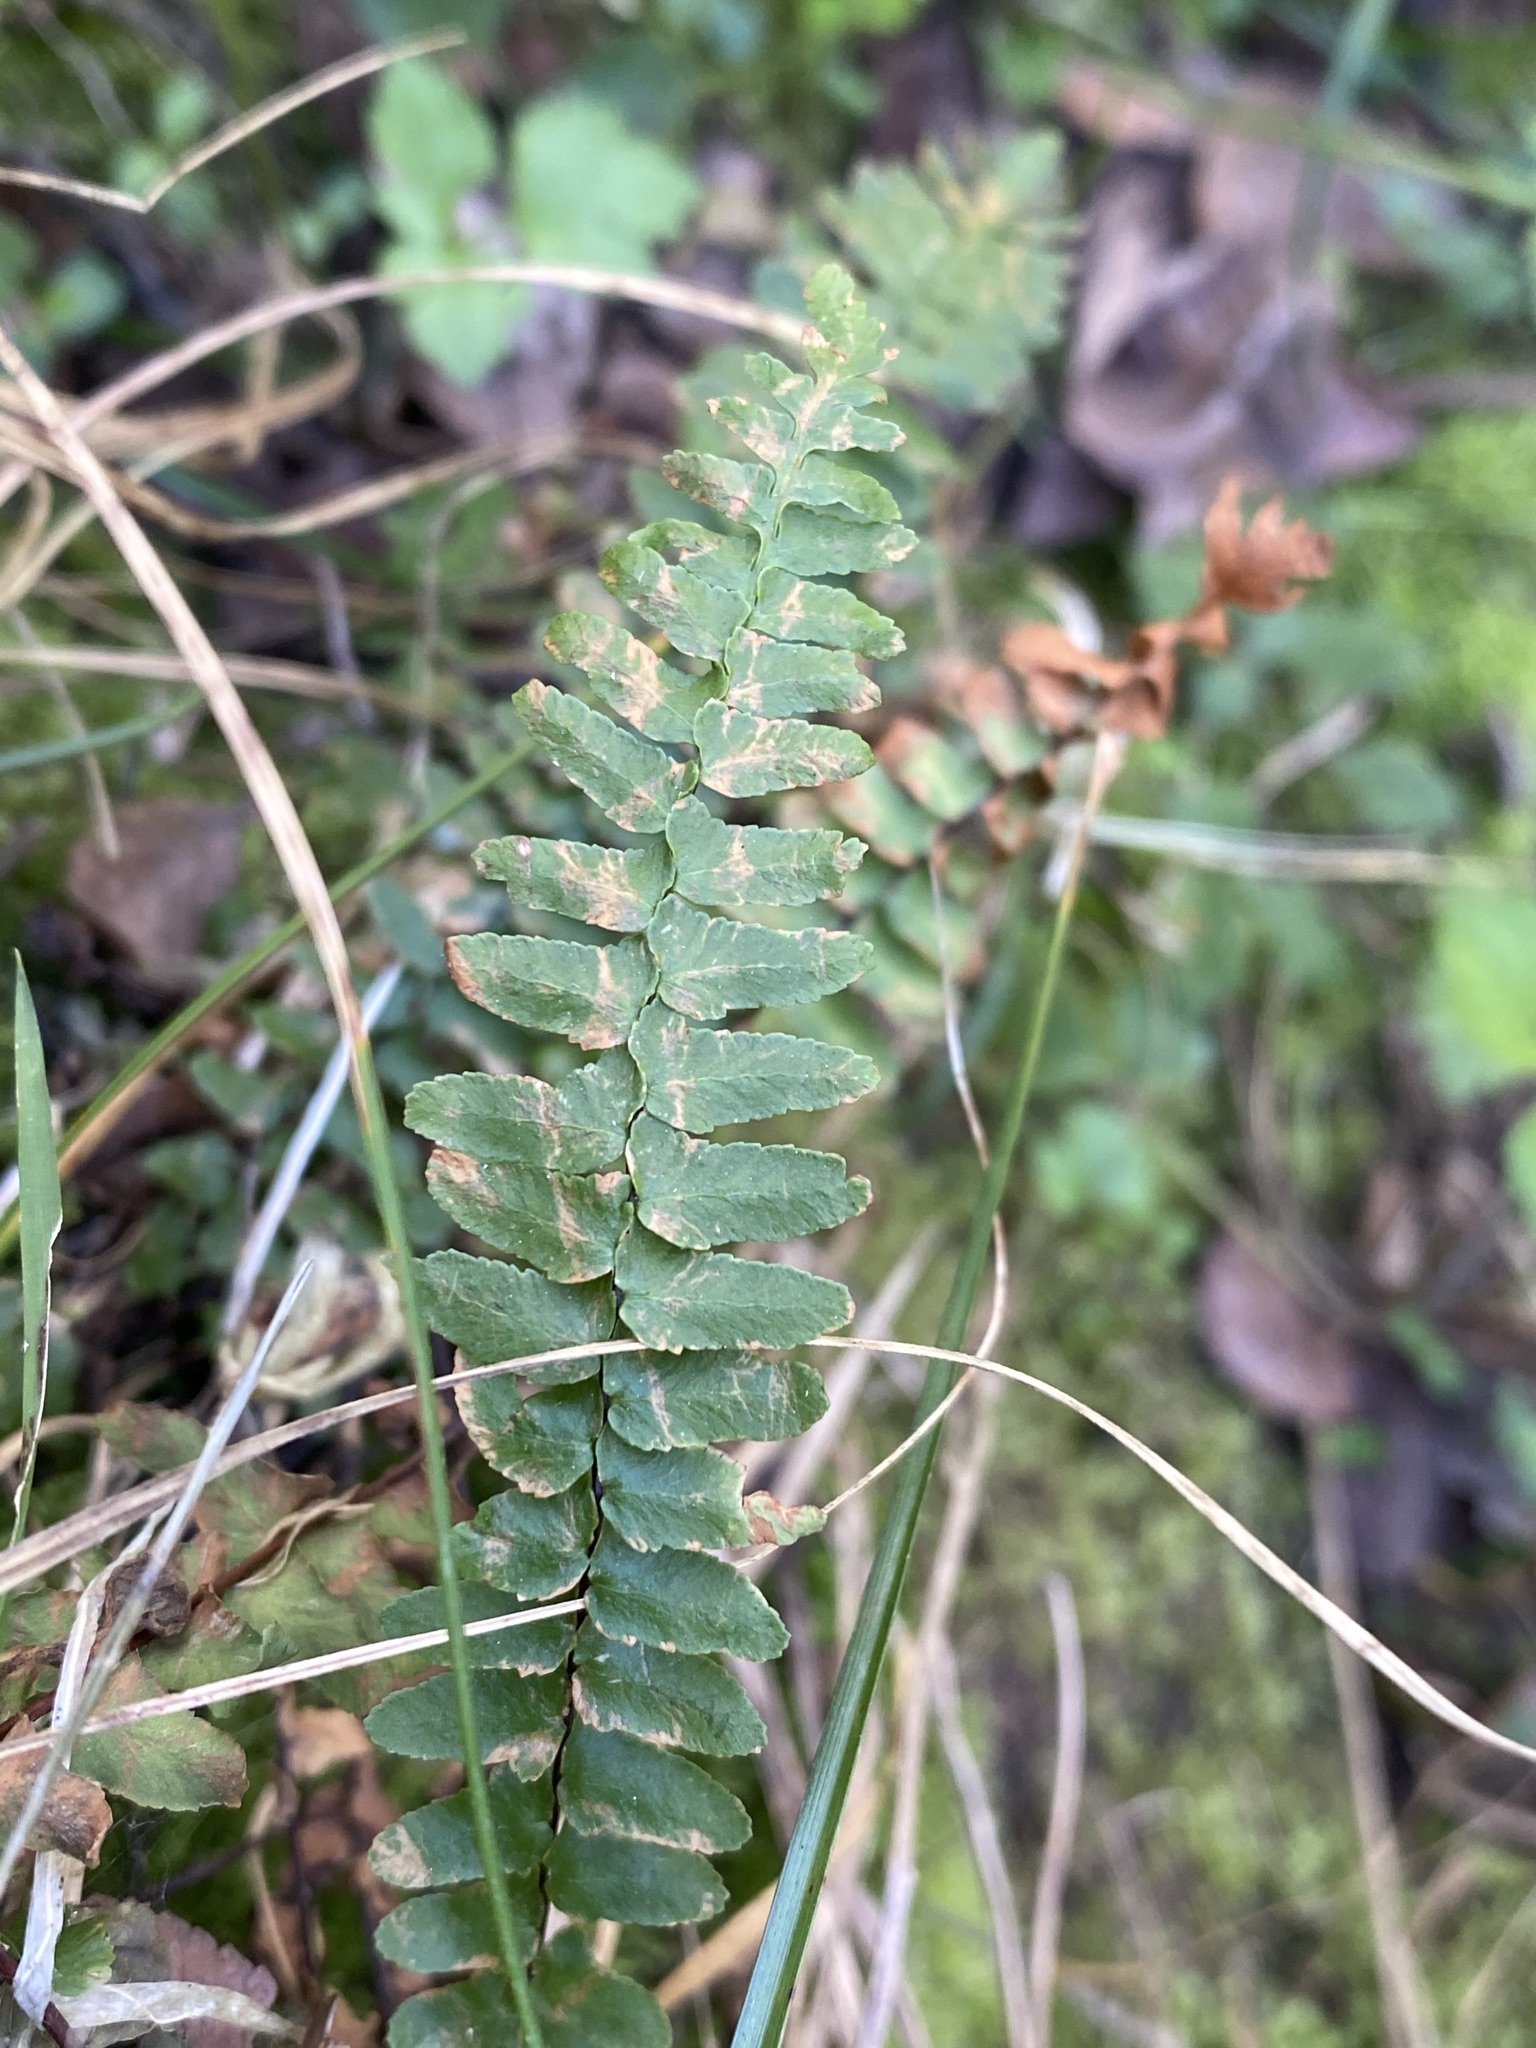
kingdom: Plantae
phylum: Tracheophyta
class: Polypodiopsida
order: Polypodiales
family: Aspleniaceae
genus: Asplenium
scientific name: Asplenium platyneuron
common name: Ebony spleenwort
